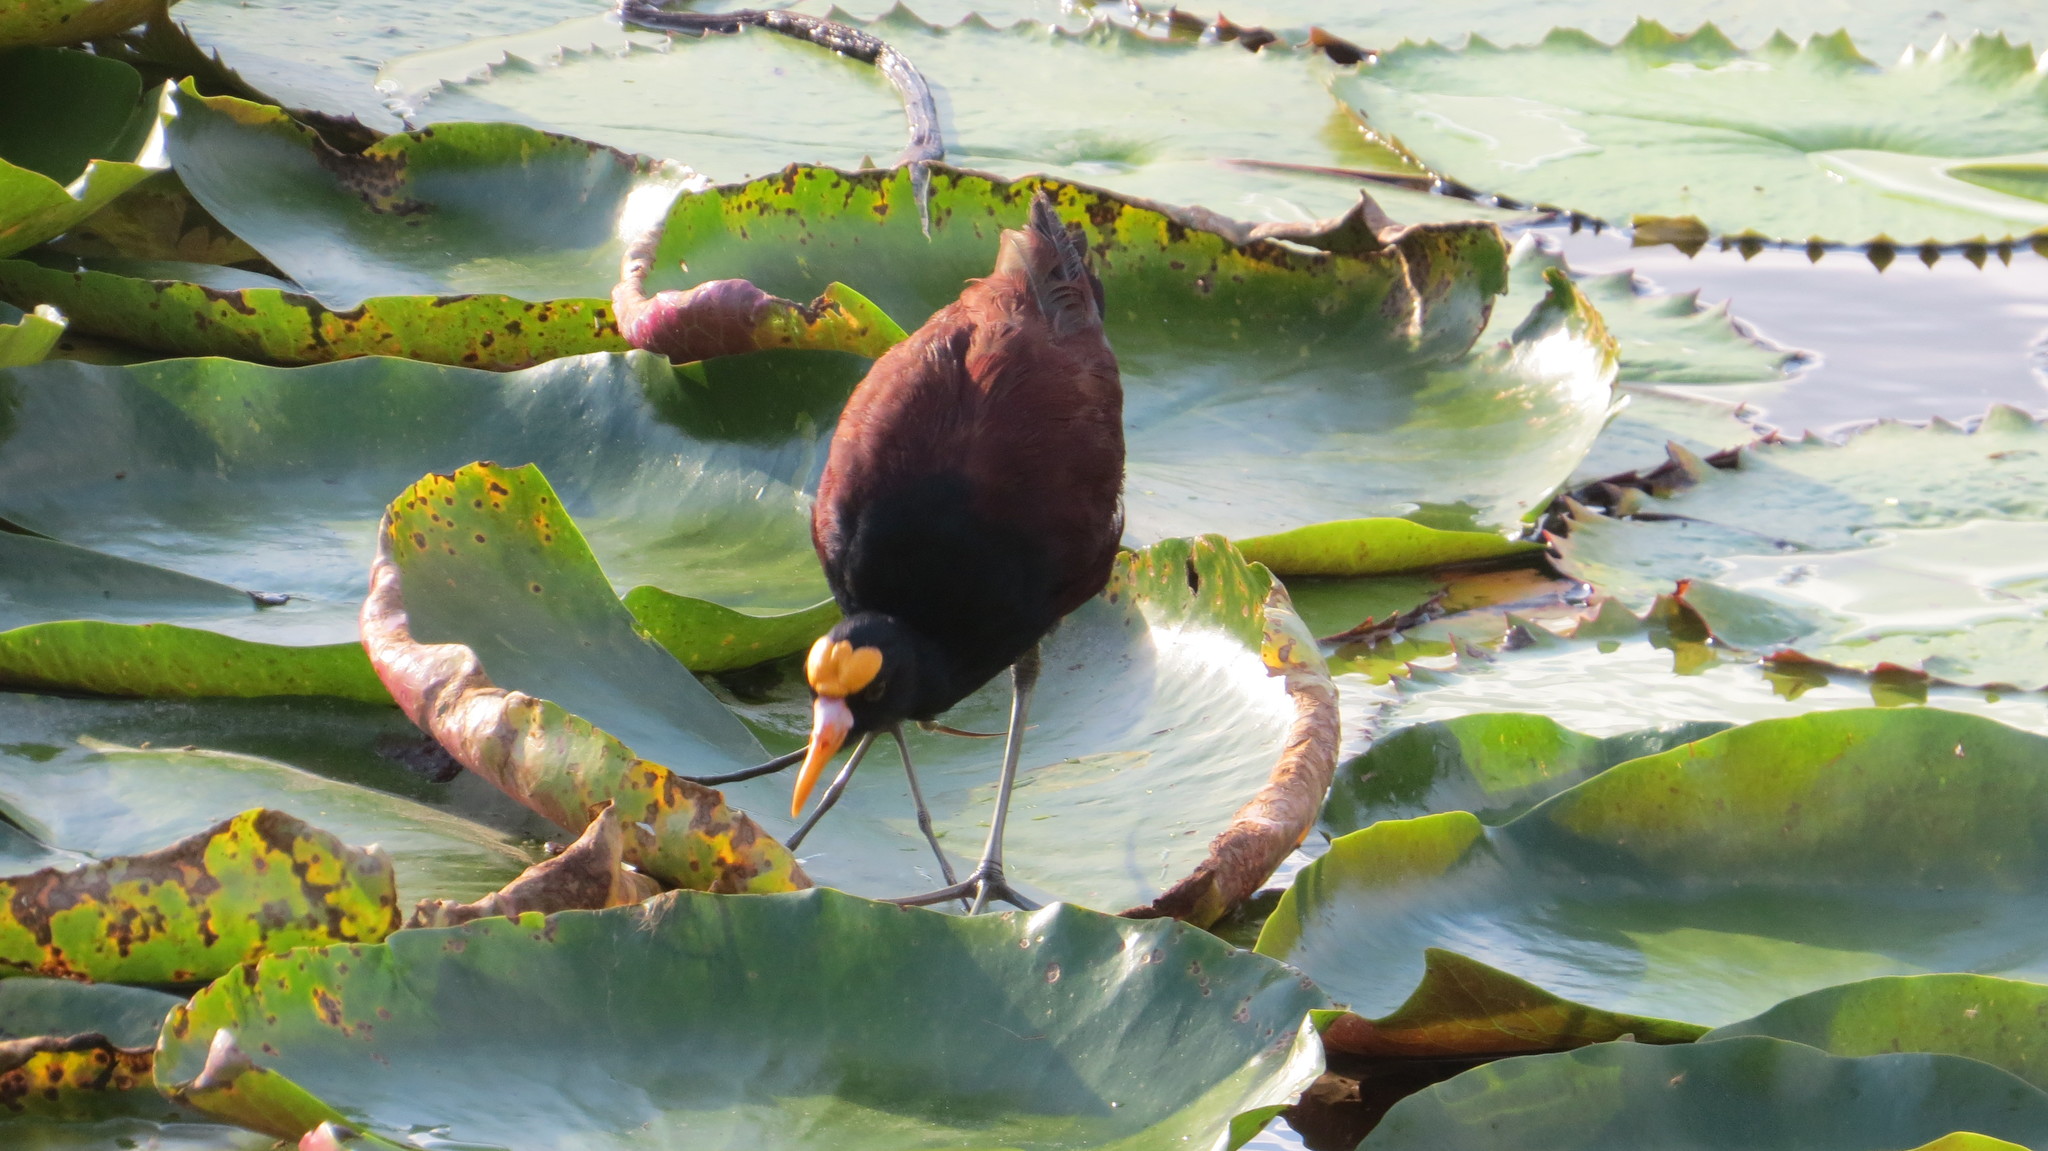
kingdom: Animalia
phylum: Chordata
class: Aves
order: Charadriiformes
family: Jacanidae
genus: Jacana
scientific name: Jacana spinosa
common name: Northern jacana
